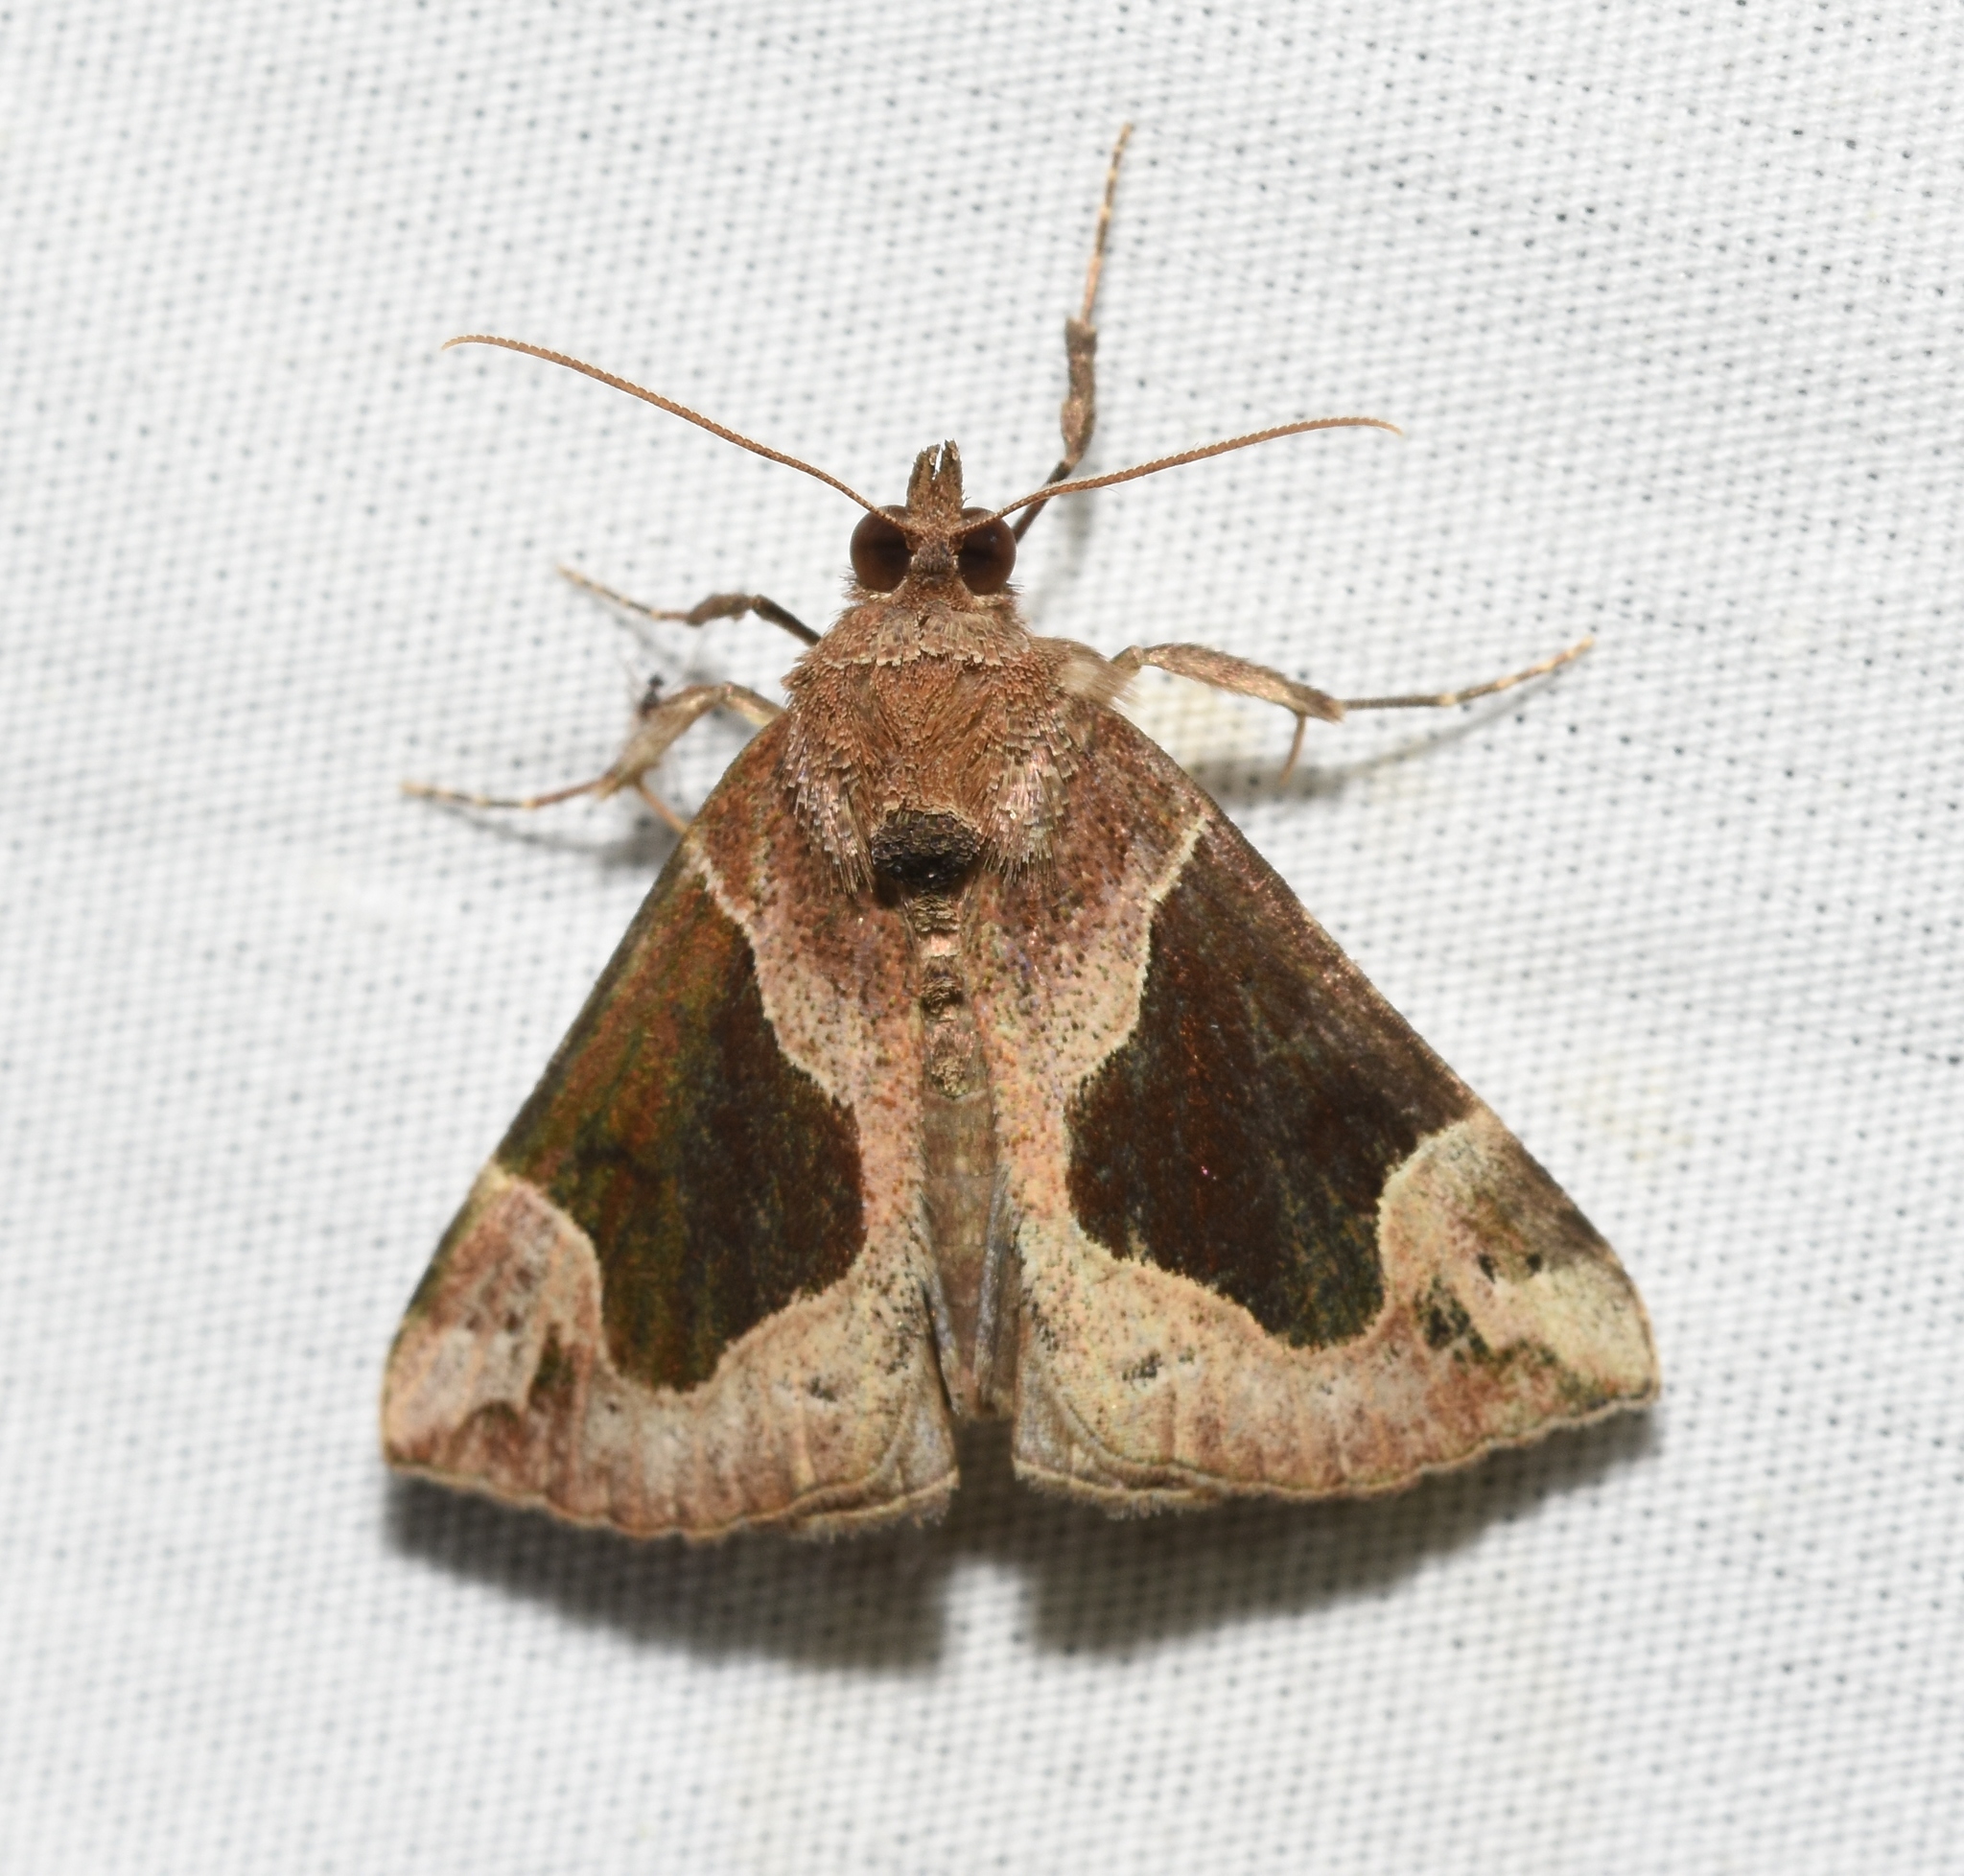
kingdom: Animalia
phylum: Arthropoda
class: Insecta
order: Lepidoptera
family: Erebidae
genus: Hypena
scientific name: Hypena manalis
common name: Flowing-line bomolocha moth
